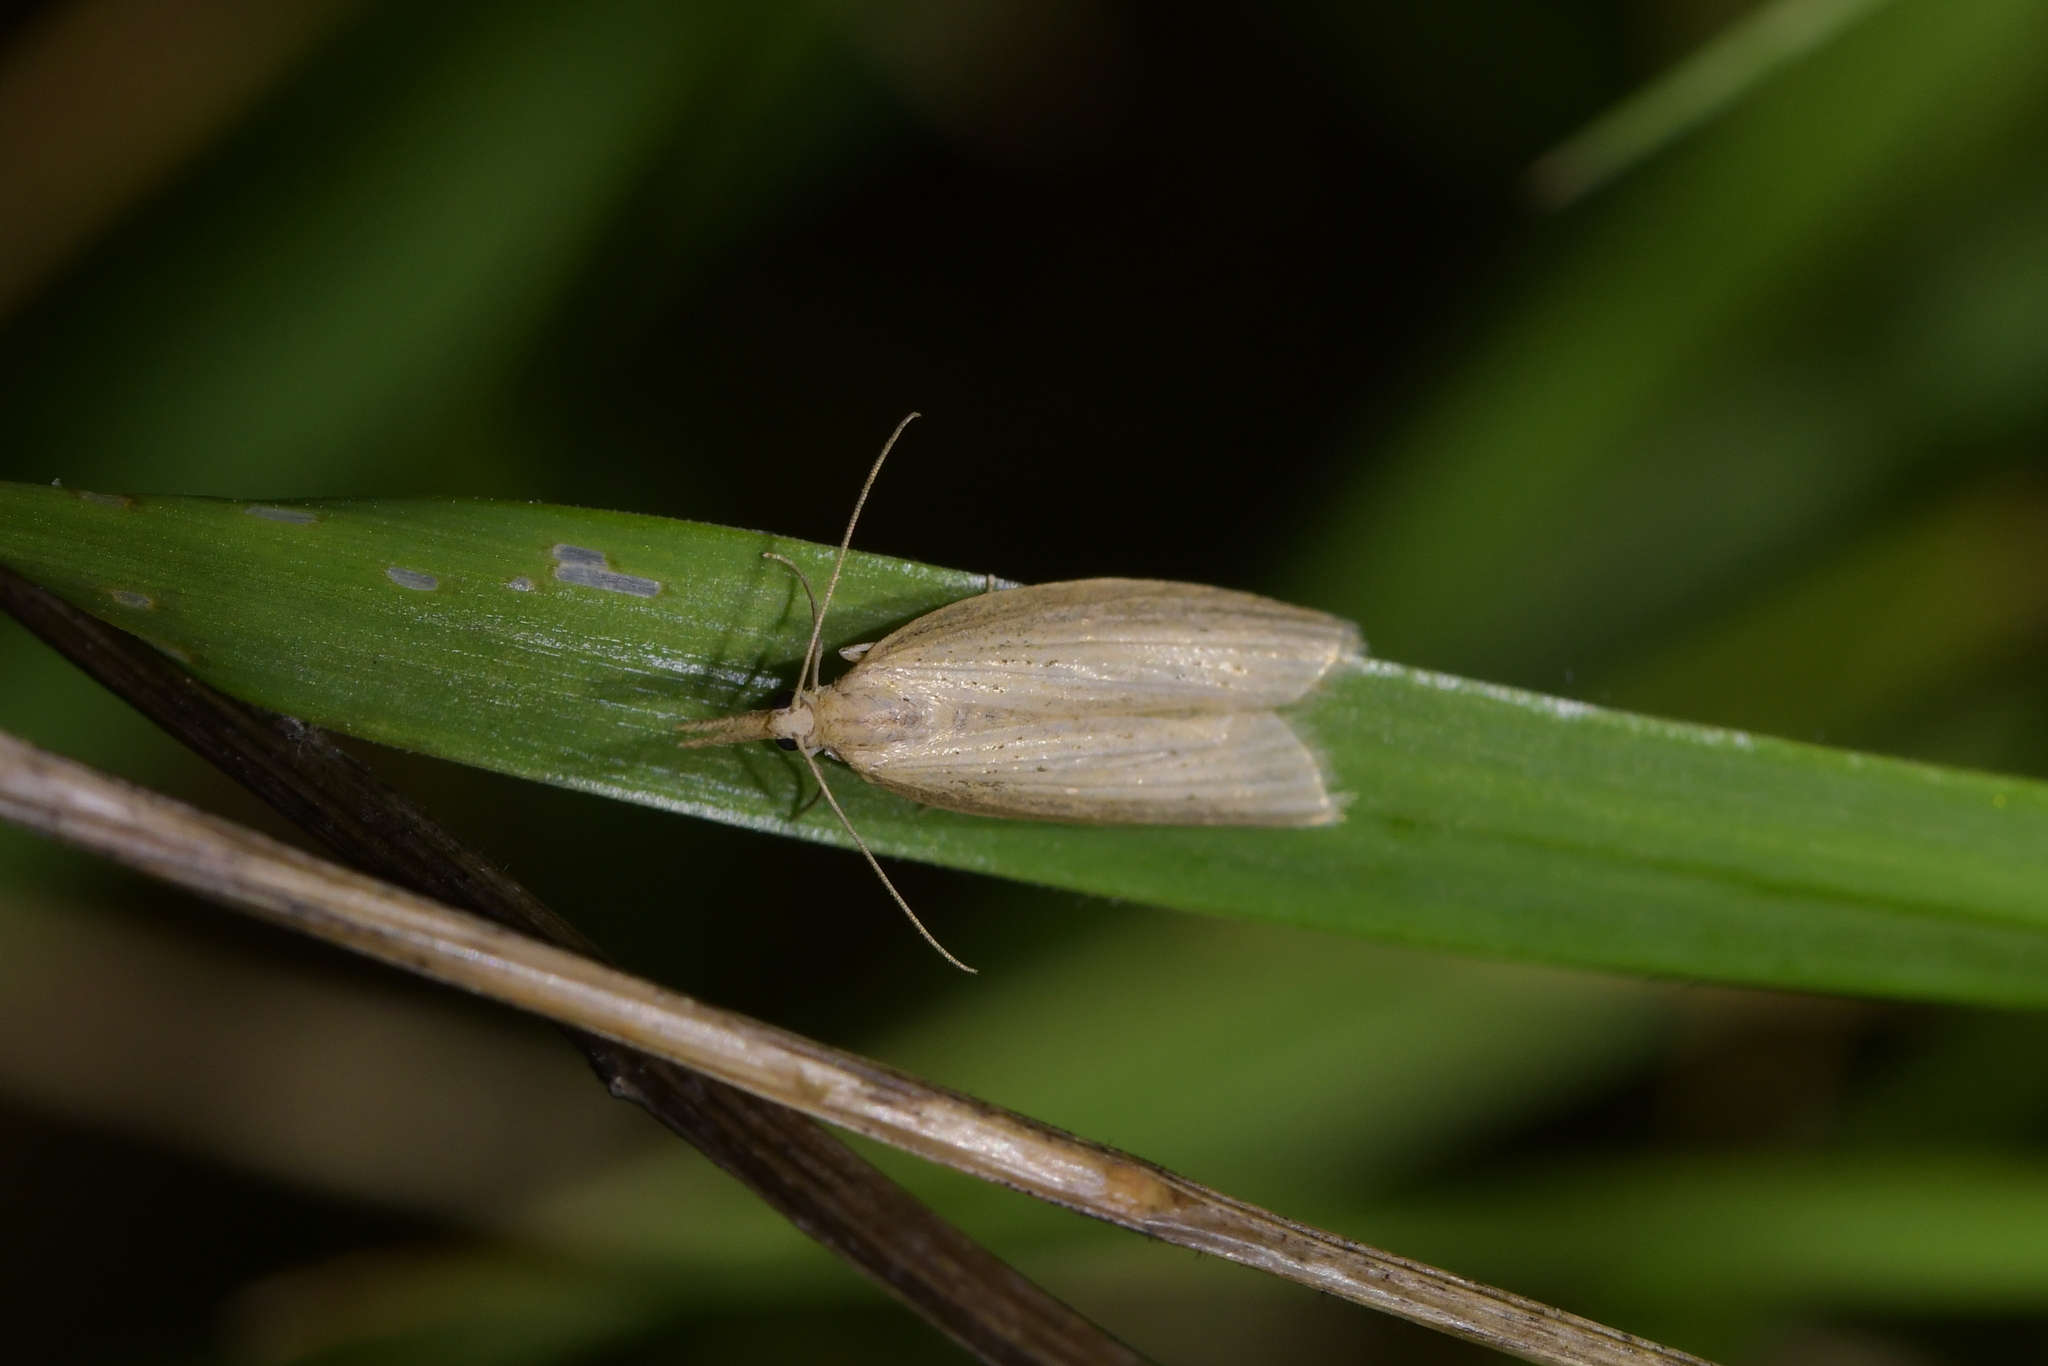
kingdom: Animalia
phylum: Arthropoda
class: Insecta
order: Lepidoptera
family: Geometridae
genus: Microdes
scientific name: Microdes epicryptis
